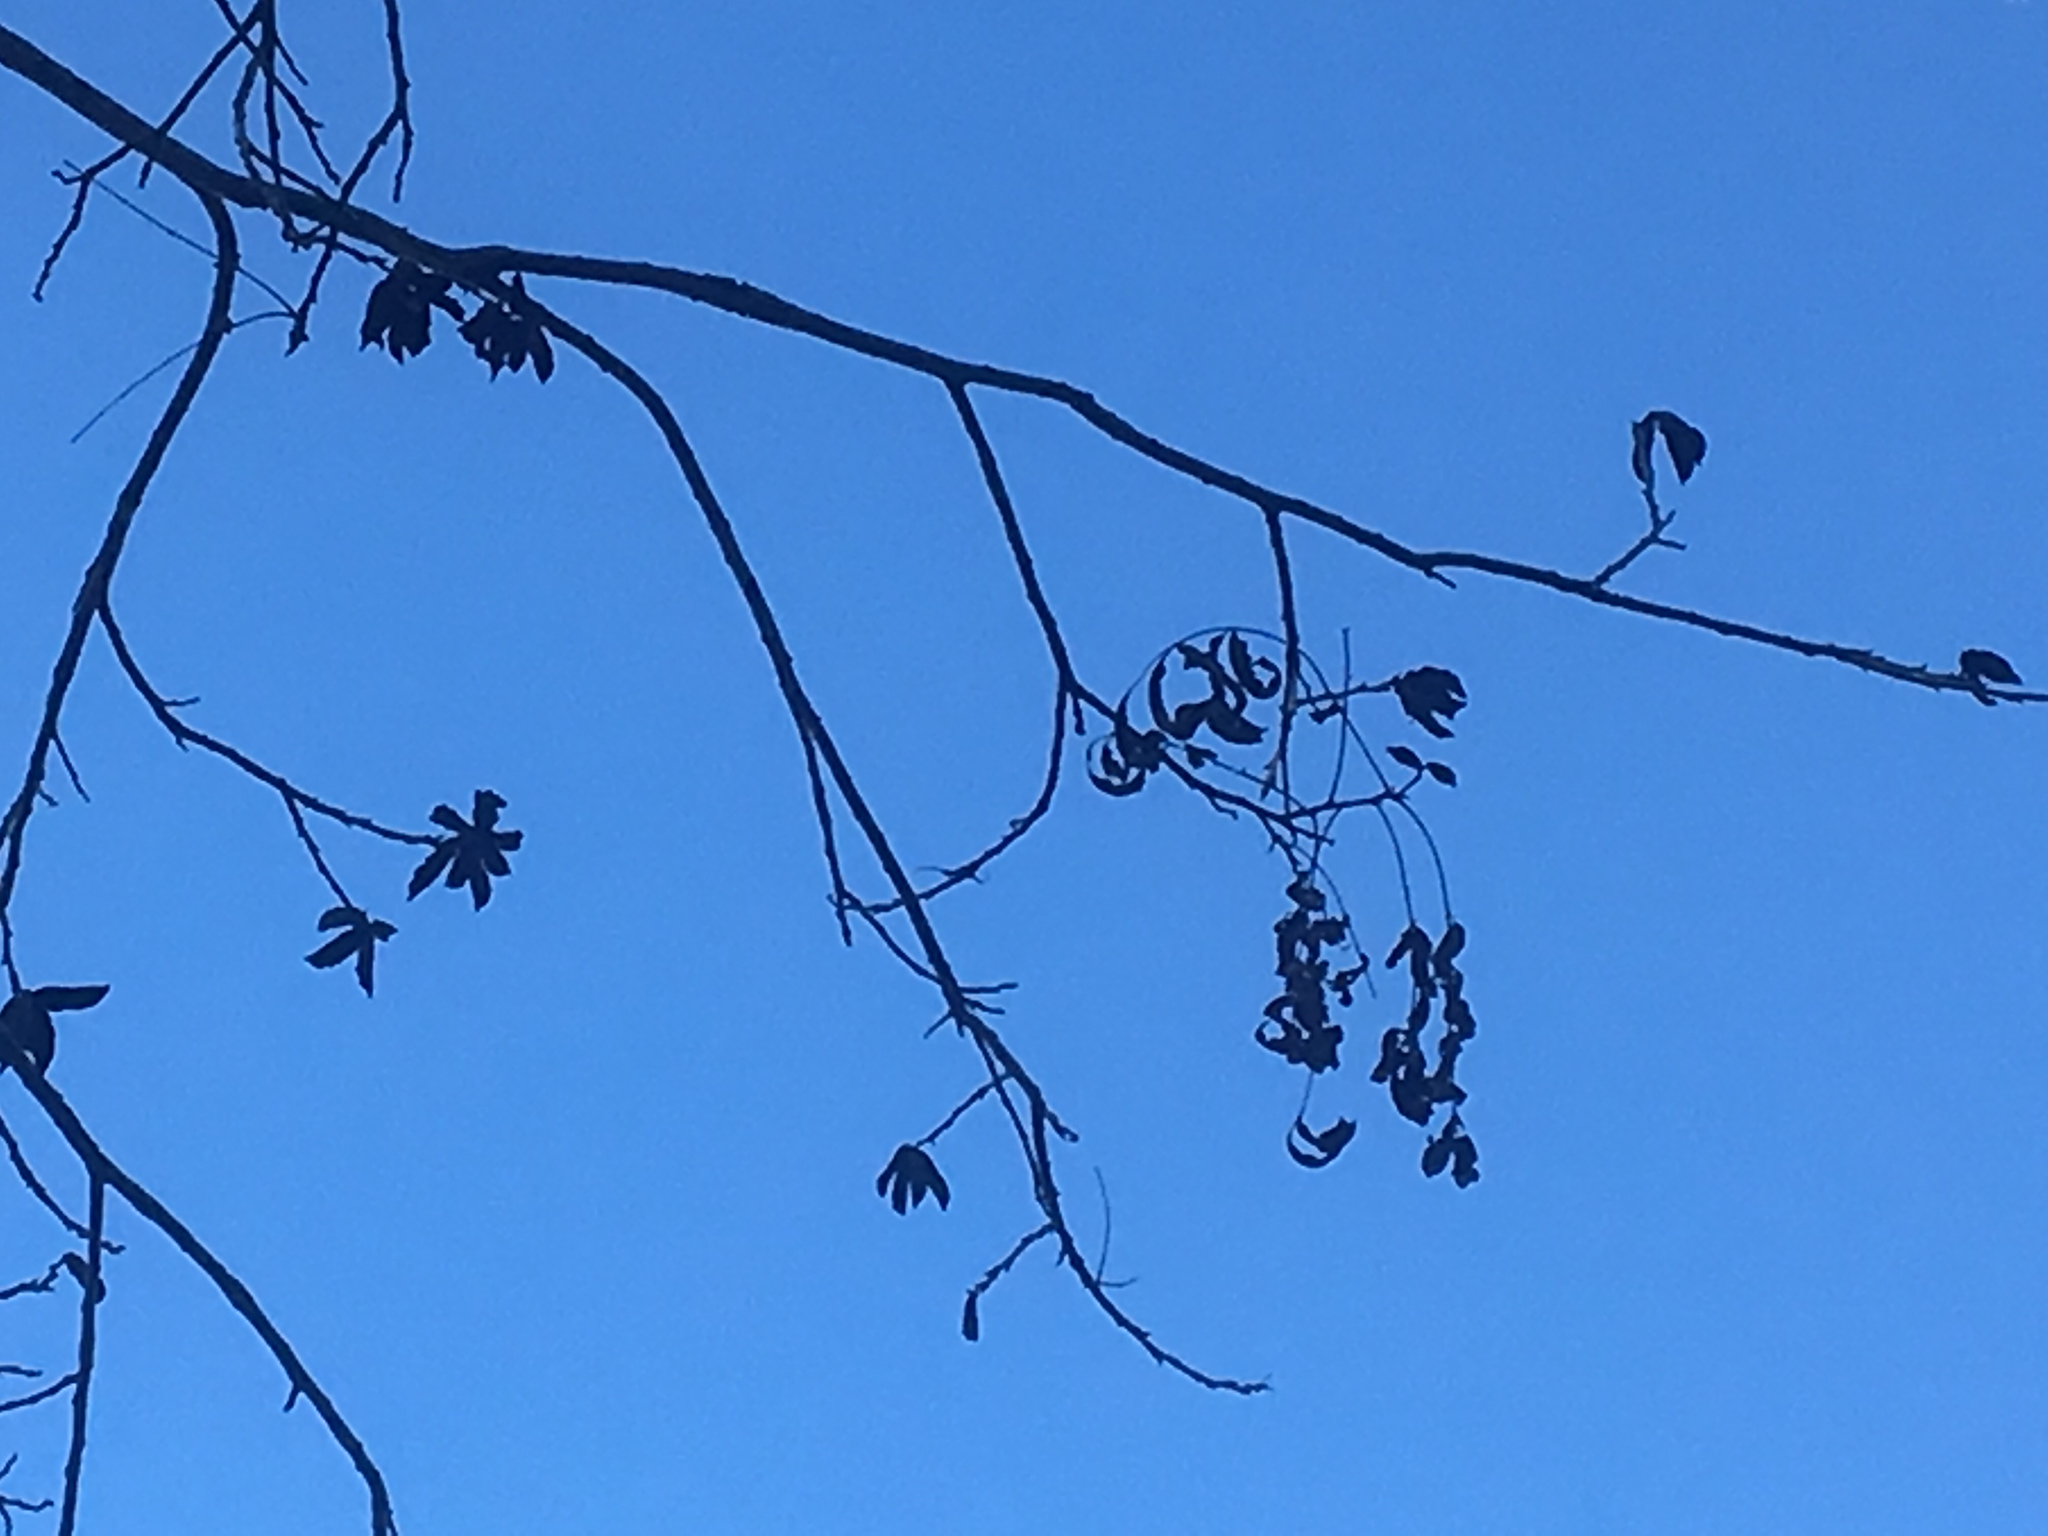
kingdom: Plantae
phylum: Tracheophyta
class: Magnoliopsida
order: Fagales
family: Juglandaceae
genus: Carya
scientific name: Carya illinoinensis
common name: Pecan
